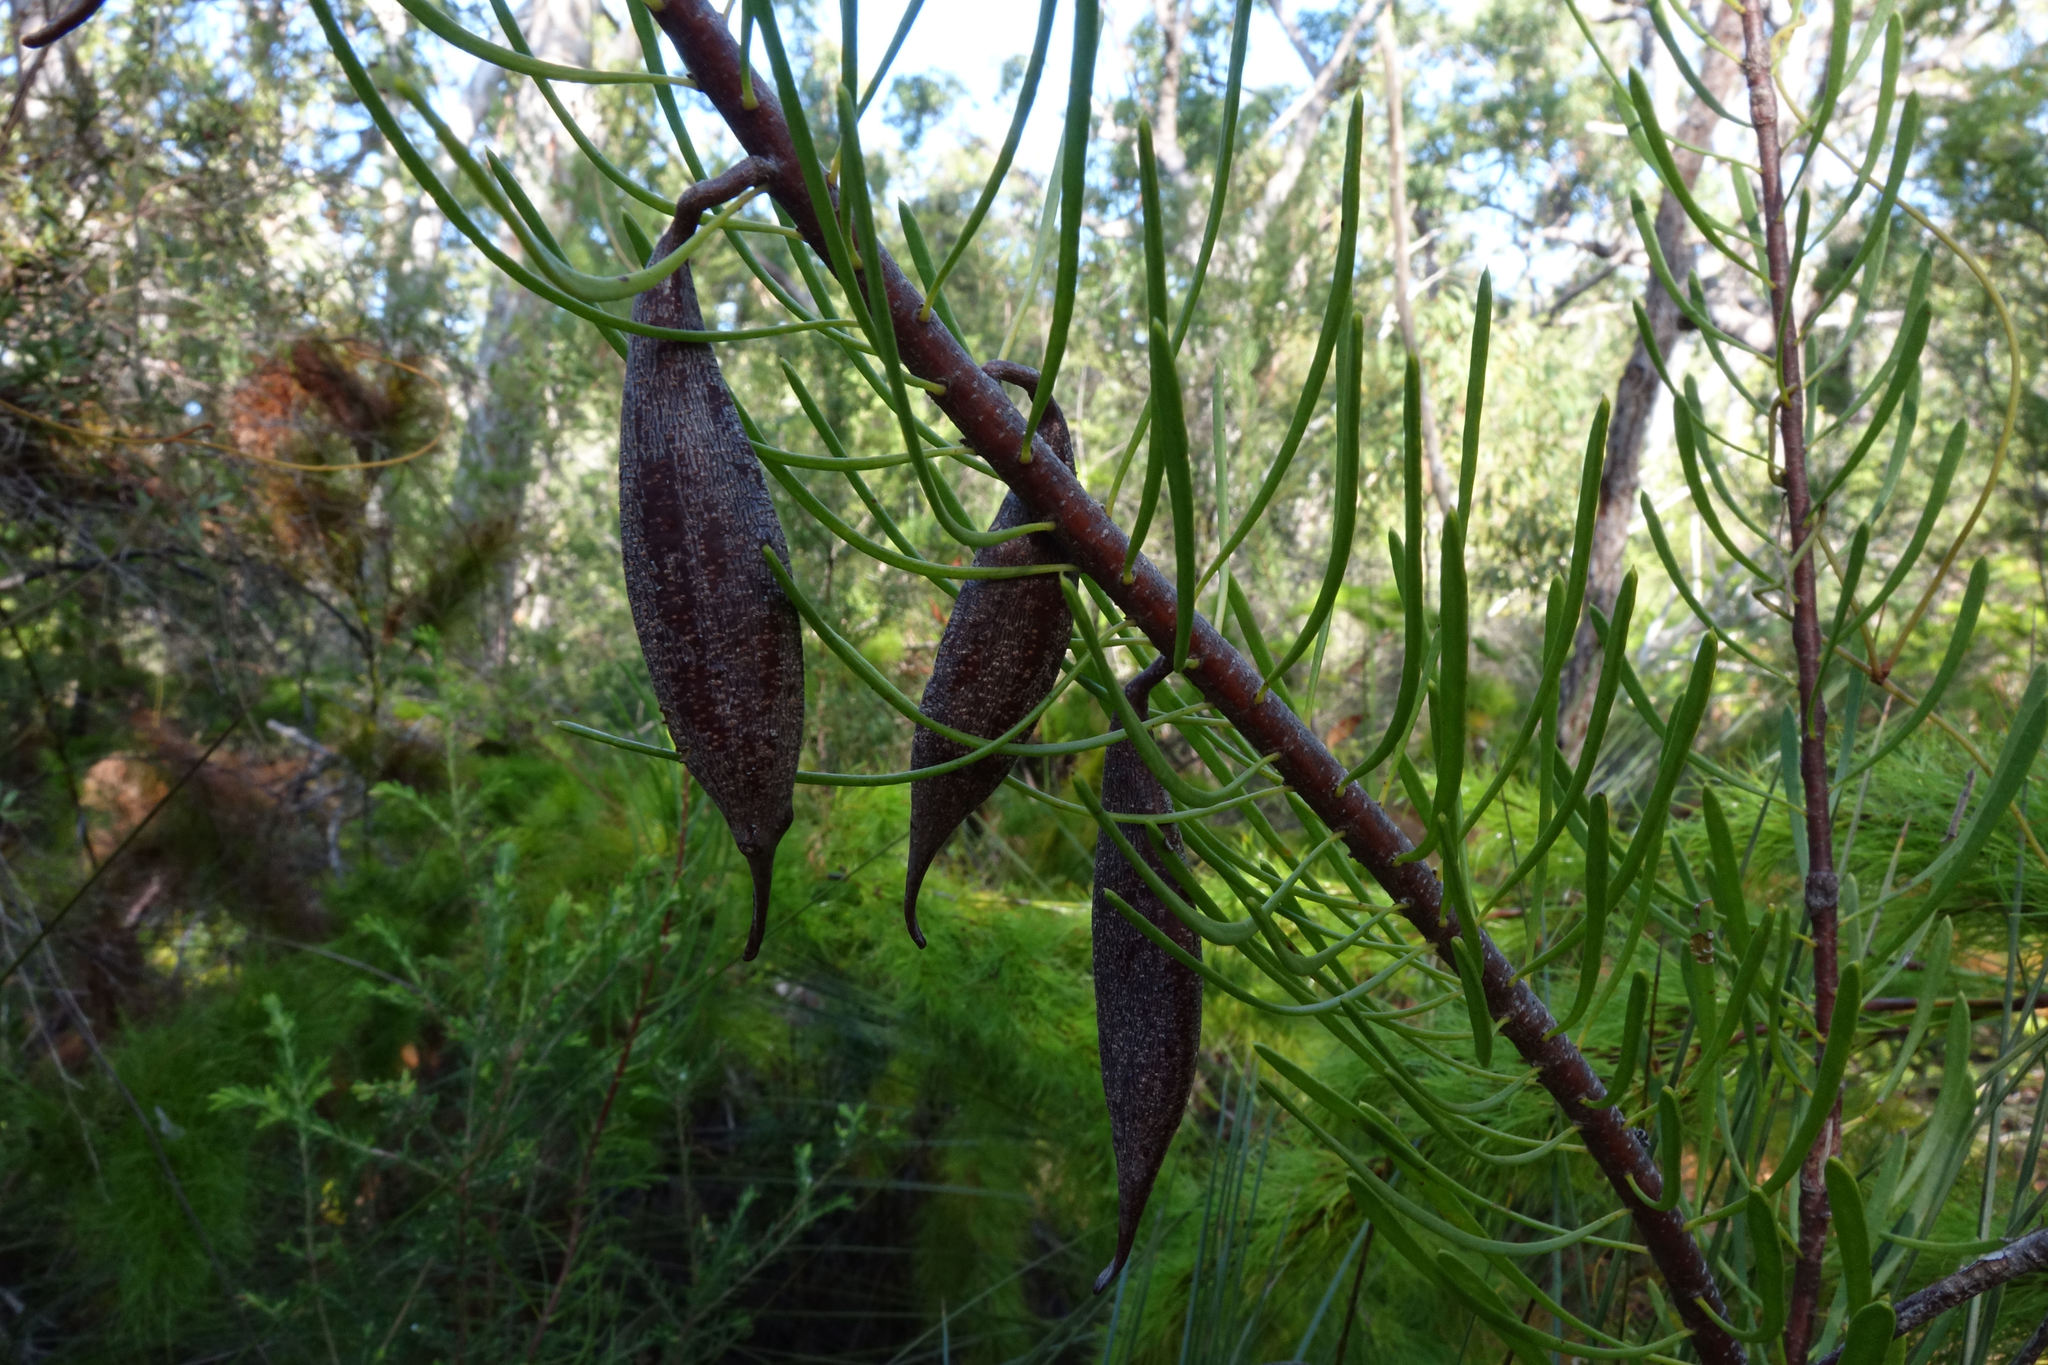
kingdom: Plantae
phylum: Tracheophyta
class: Magnoliopsida
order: Proteales
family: Proteaceae
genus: Strangea
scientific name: Strangea linearis
